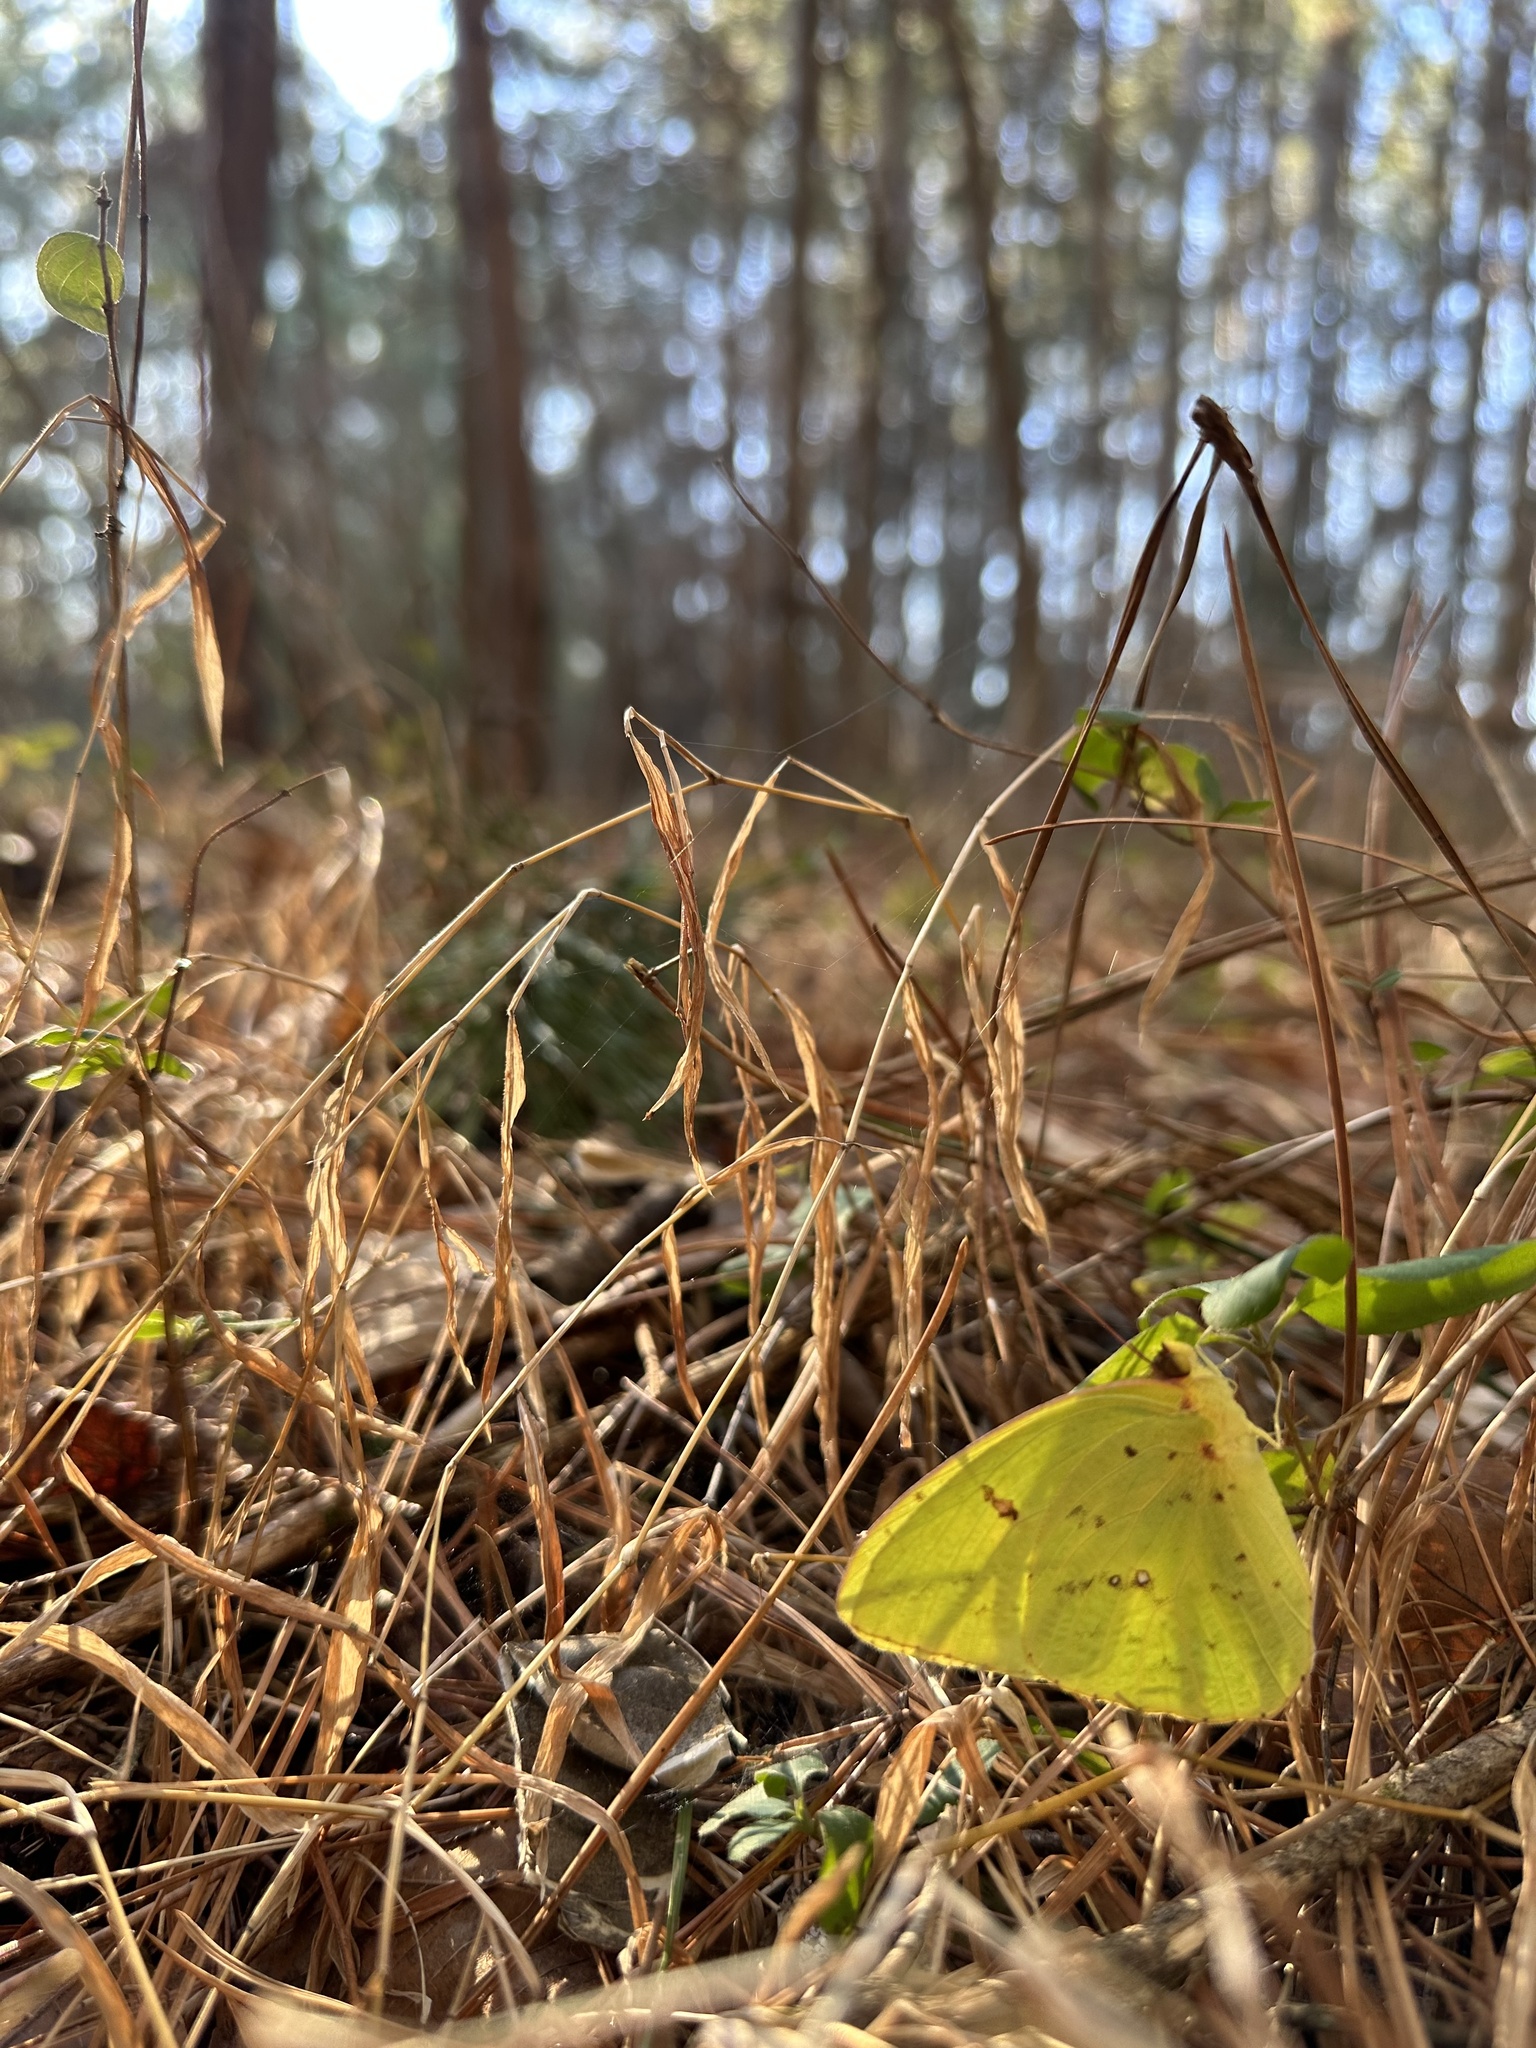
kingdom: Animalia
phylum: Arthropoda
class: Insecta
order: Lepidoptera
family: Pieridae
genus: Phoebis
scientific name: Phoebis sennae
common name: Cloudless sulphur
